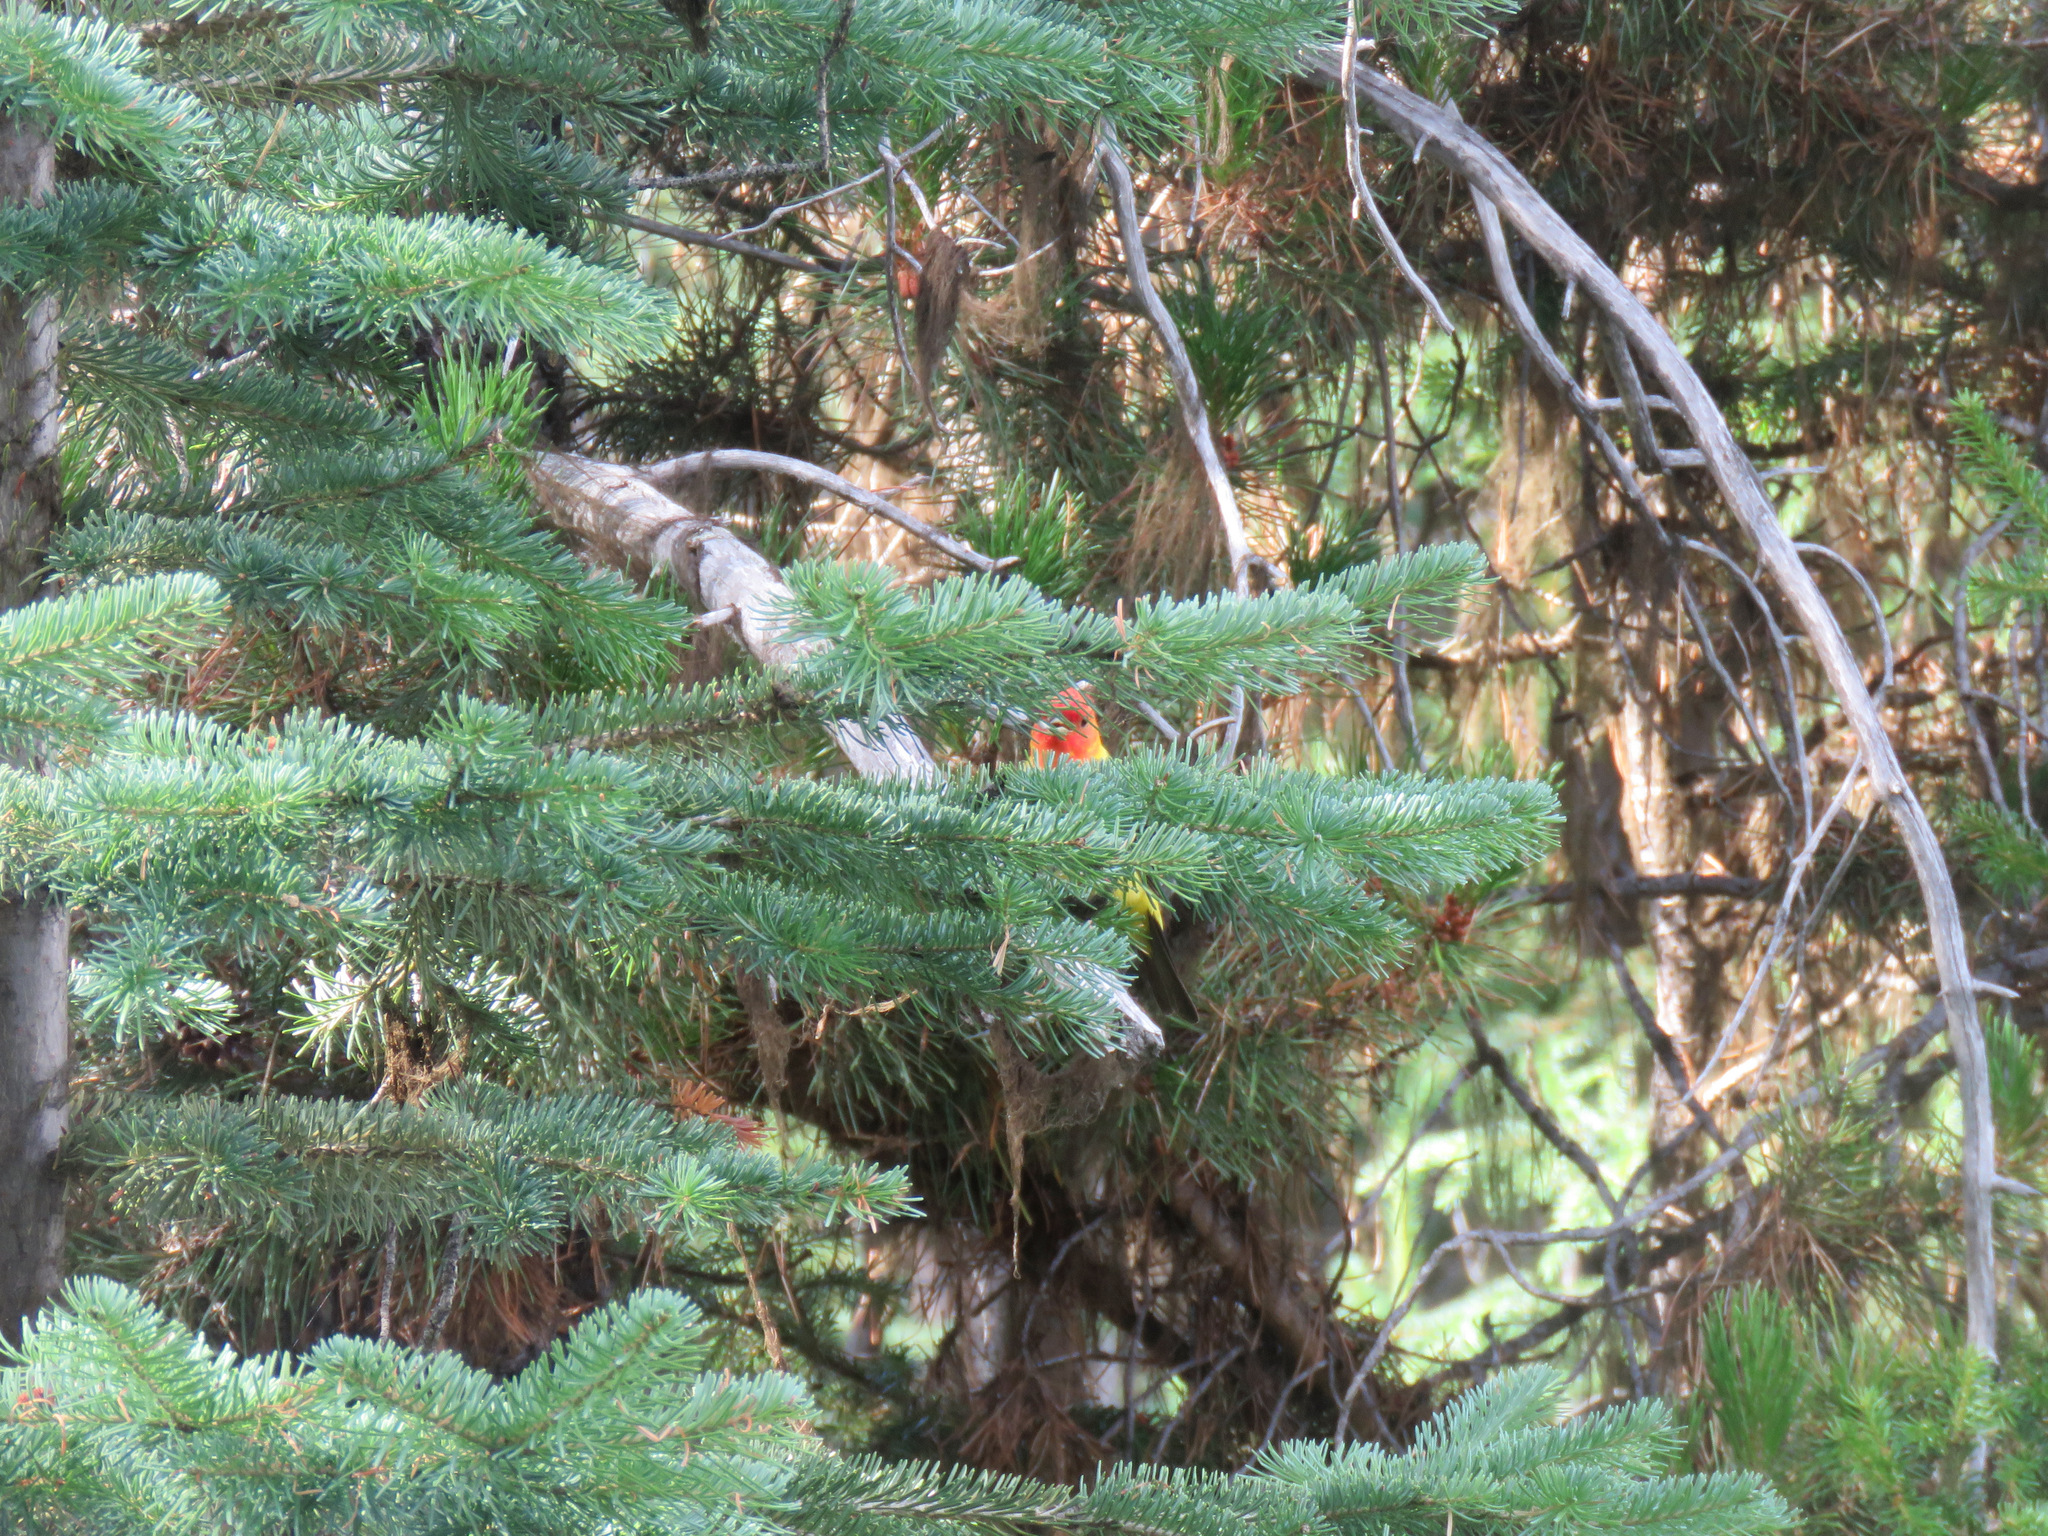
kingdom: Animalia
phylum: Chordata
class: Aves
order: Passeriformes
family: Cardinalidae
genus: Piranga
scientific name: Piranga ludoviciana
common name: Western tanager
